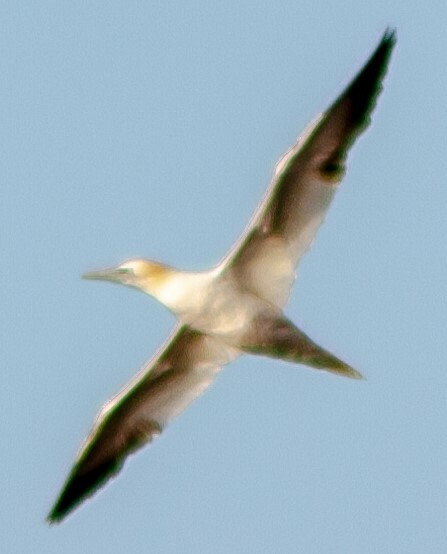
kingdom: Animalia
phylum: Chordata
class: Aves
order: Suliformes
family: Sulidae
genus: Morus
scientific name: Morus bassanus
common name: Northern gannet
